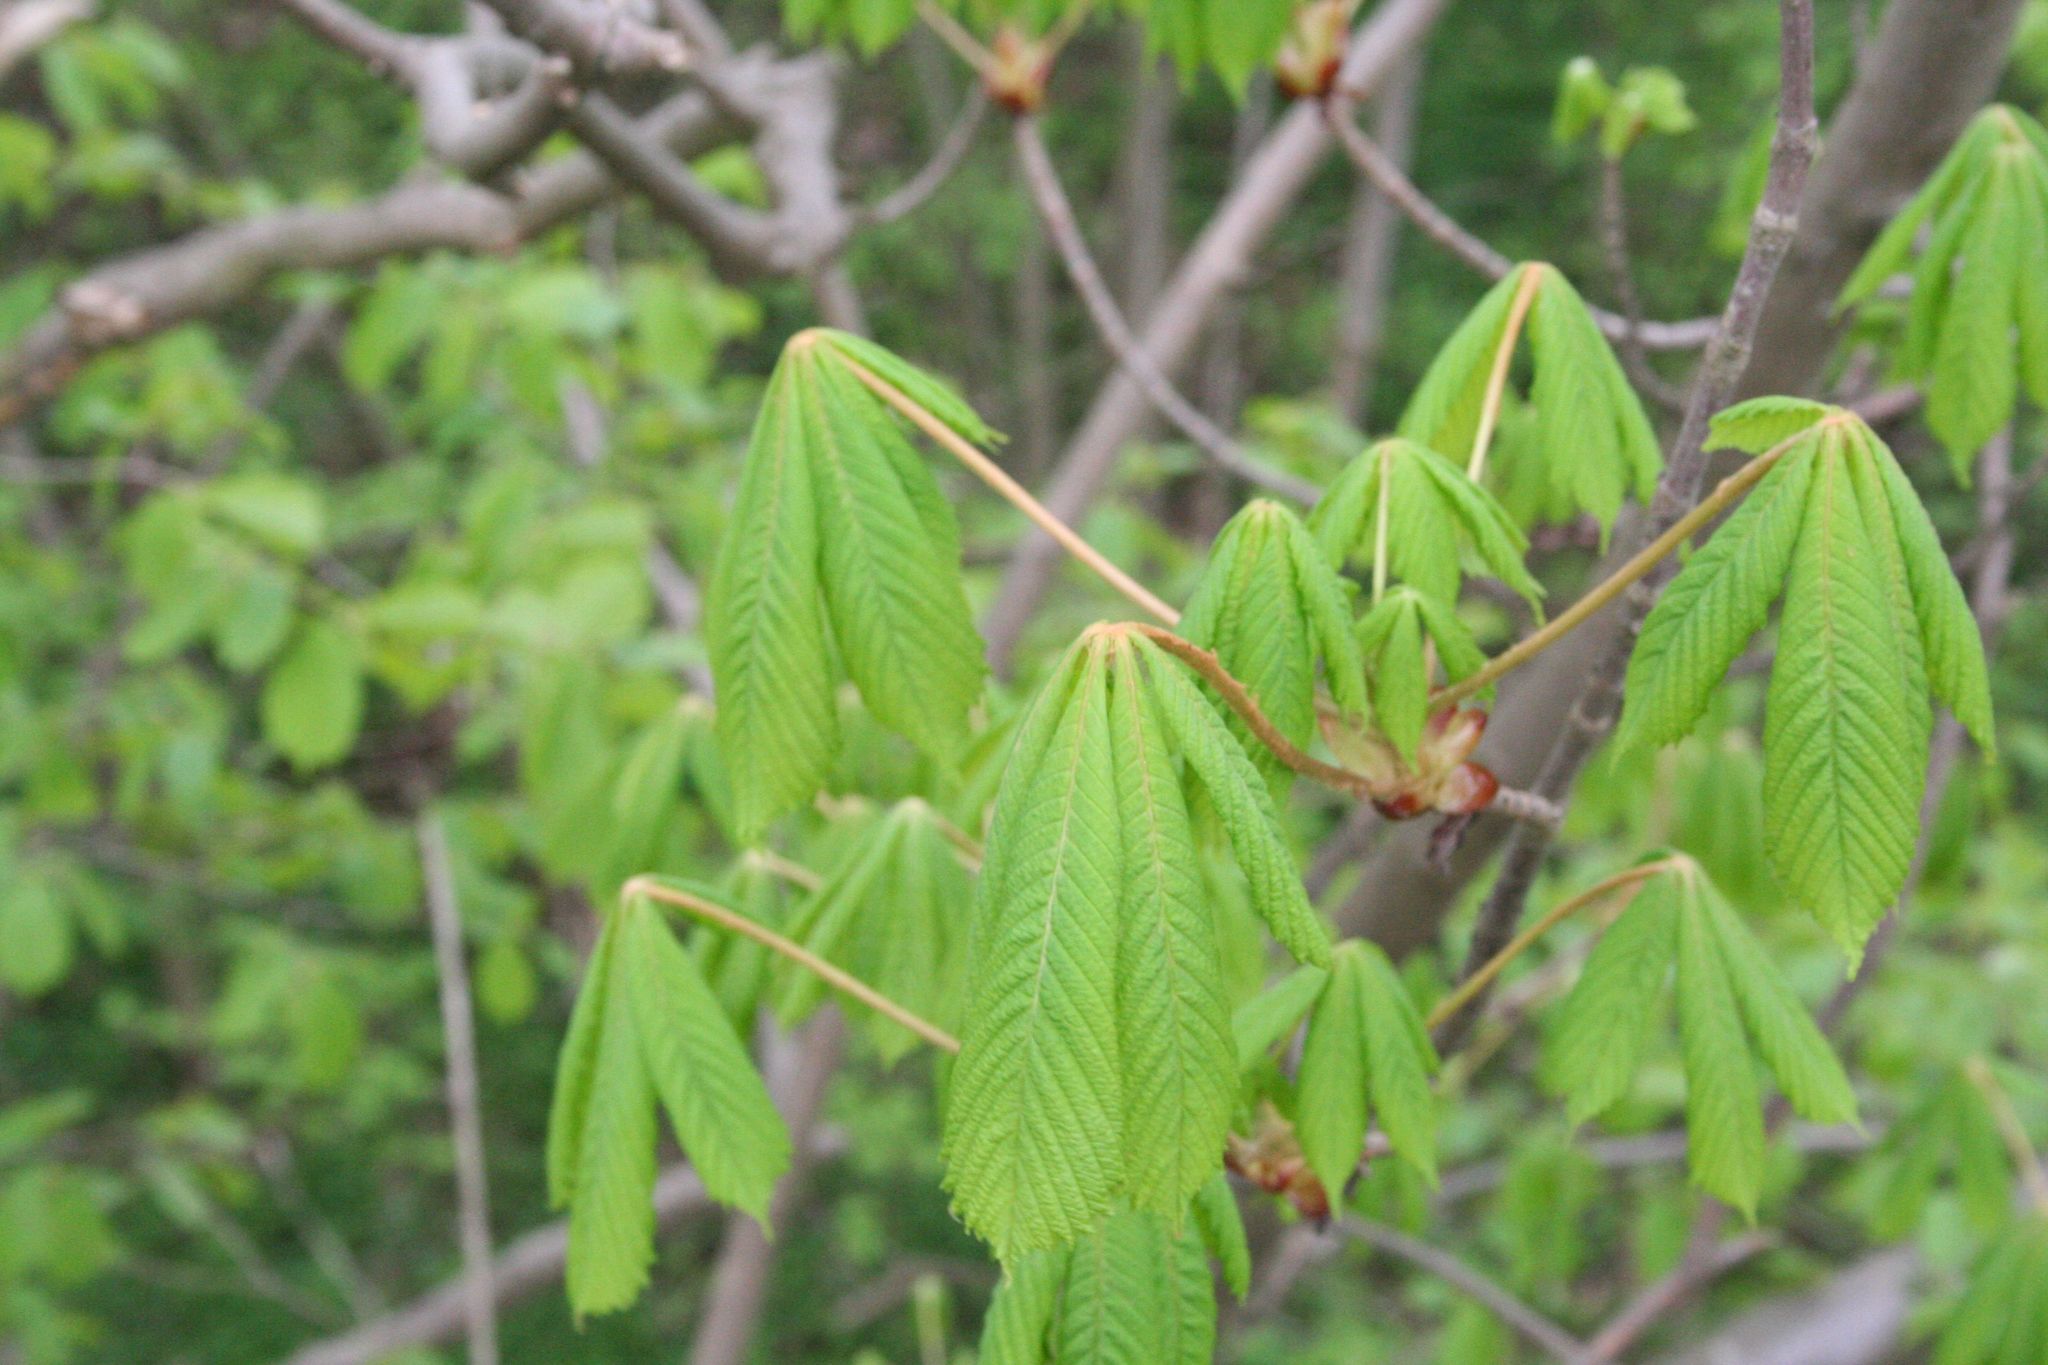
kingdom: Plantae
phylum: Tracheophyta
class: Magnoliopsida
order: Sapindales
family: Sapindaceae
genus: Aesculus
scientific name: Aesculus hippocastanum
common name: Horse-chestnut
